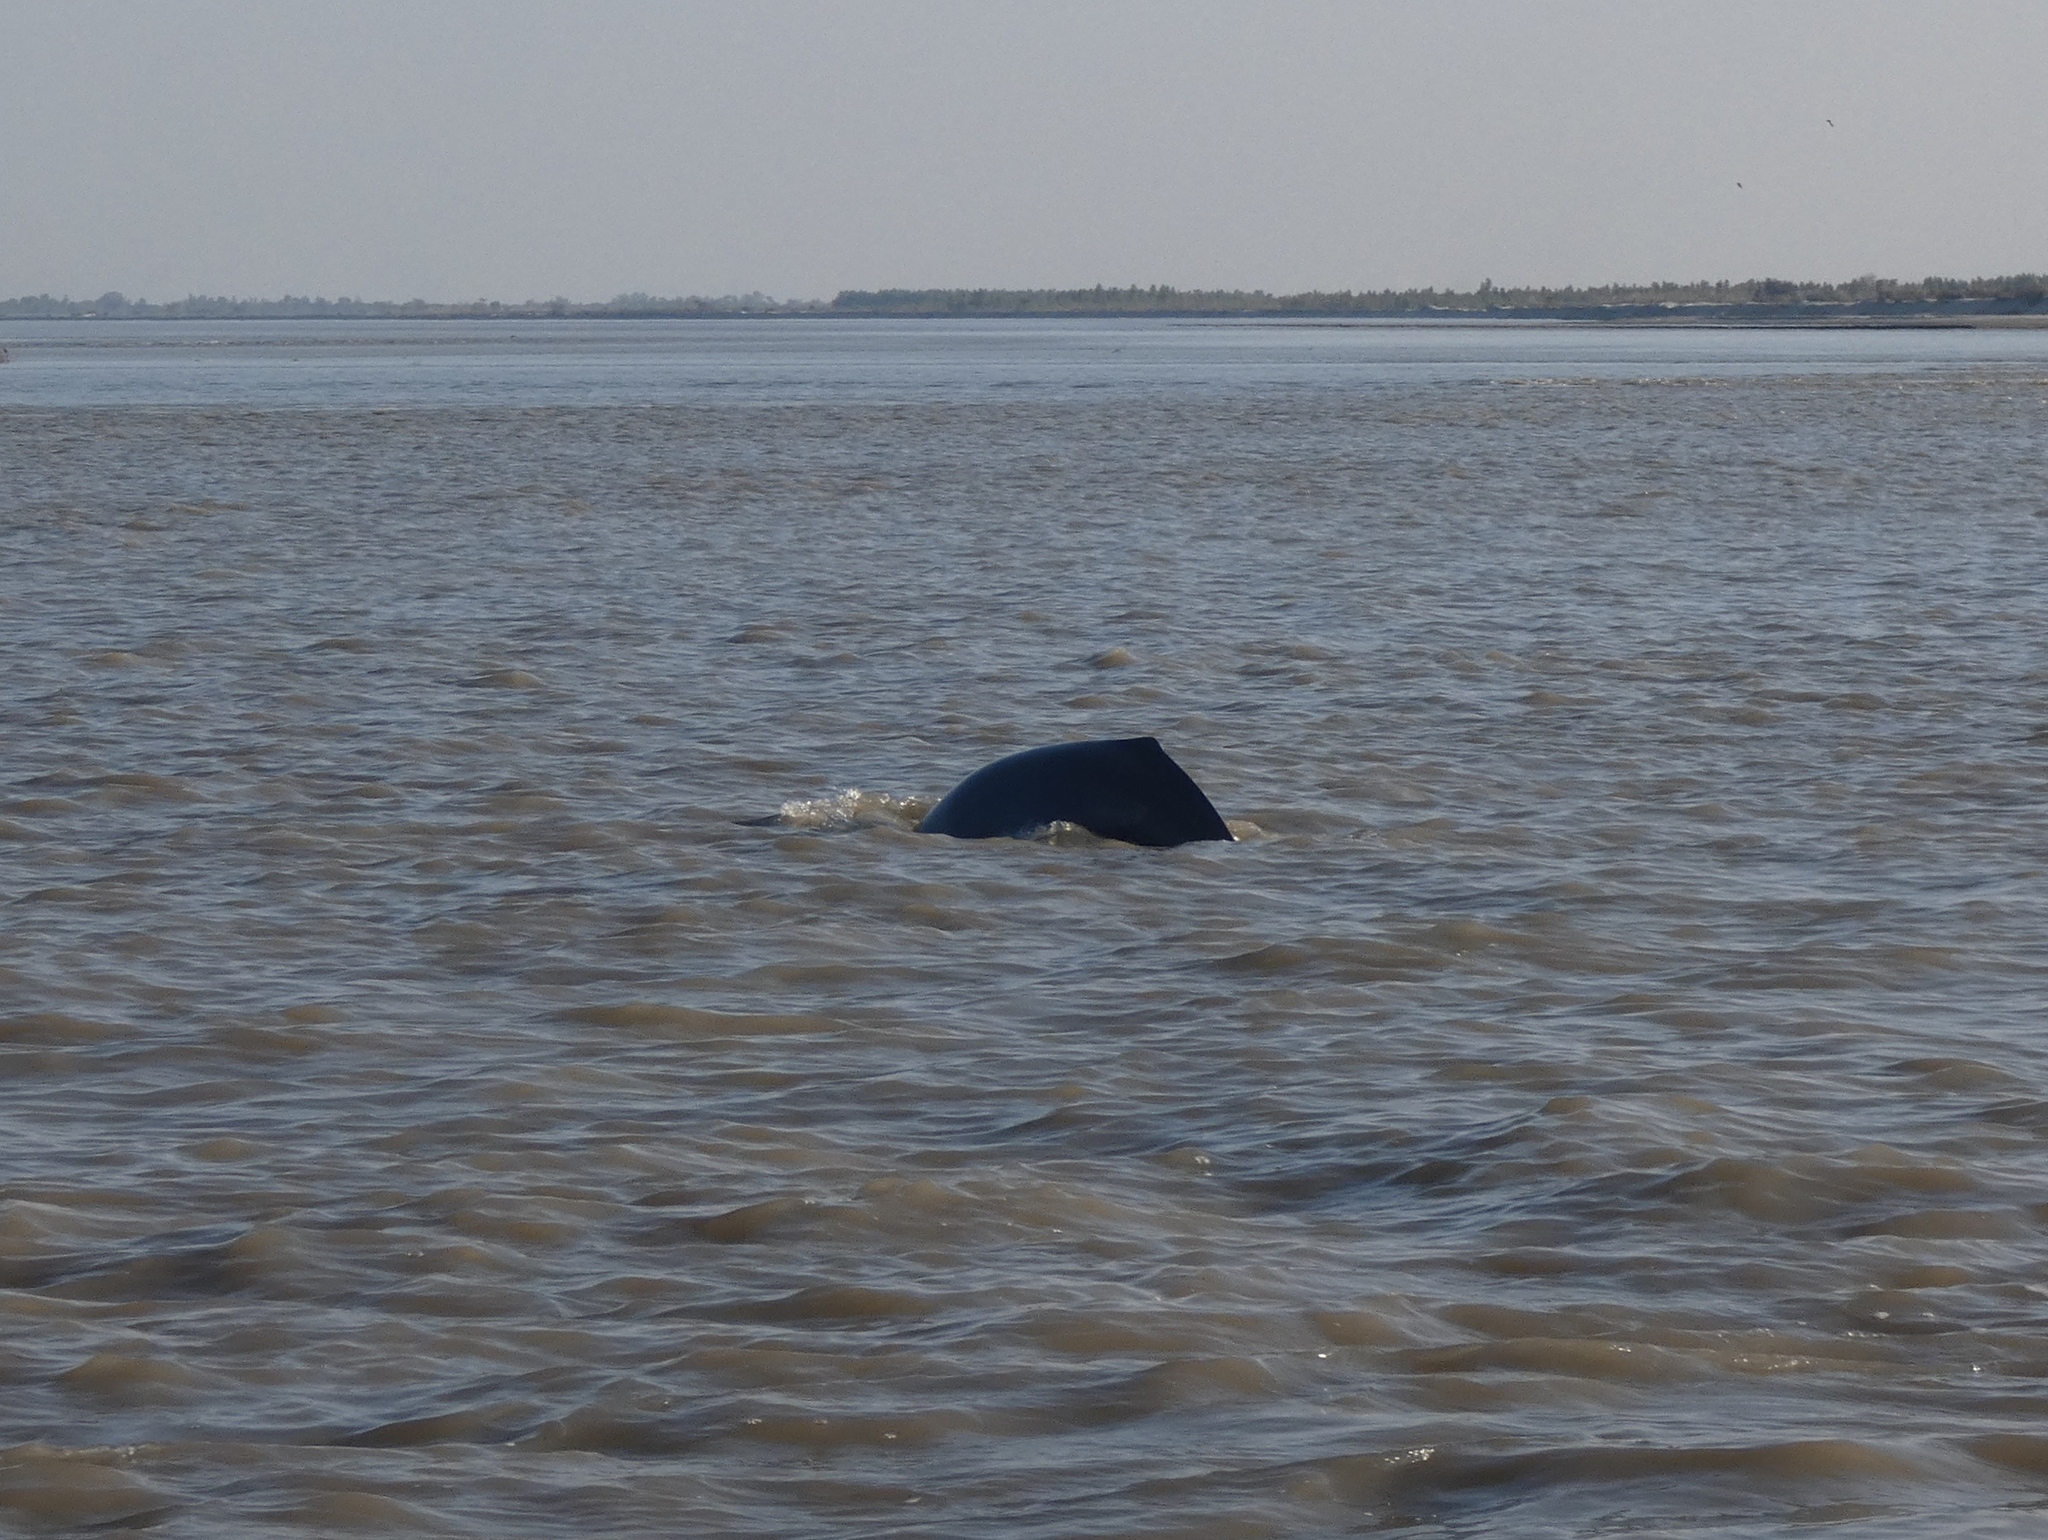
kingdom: Animalia
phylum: Chordata
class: Mammalia
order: Cetacea
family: Platanistidae
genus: Platanista
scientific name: Platanista gangetica
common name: Ganges river dolphin
